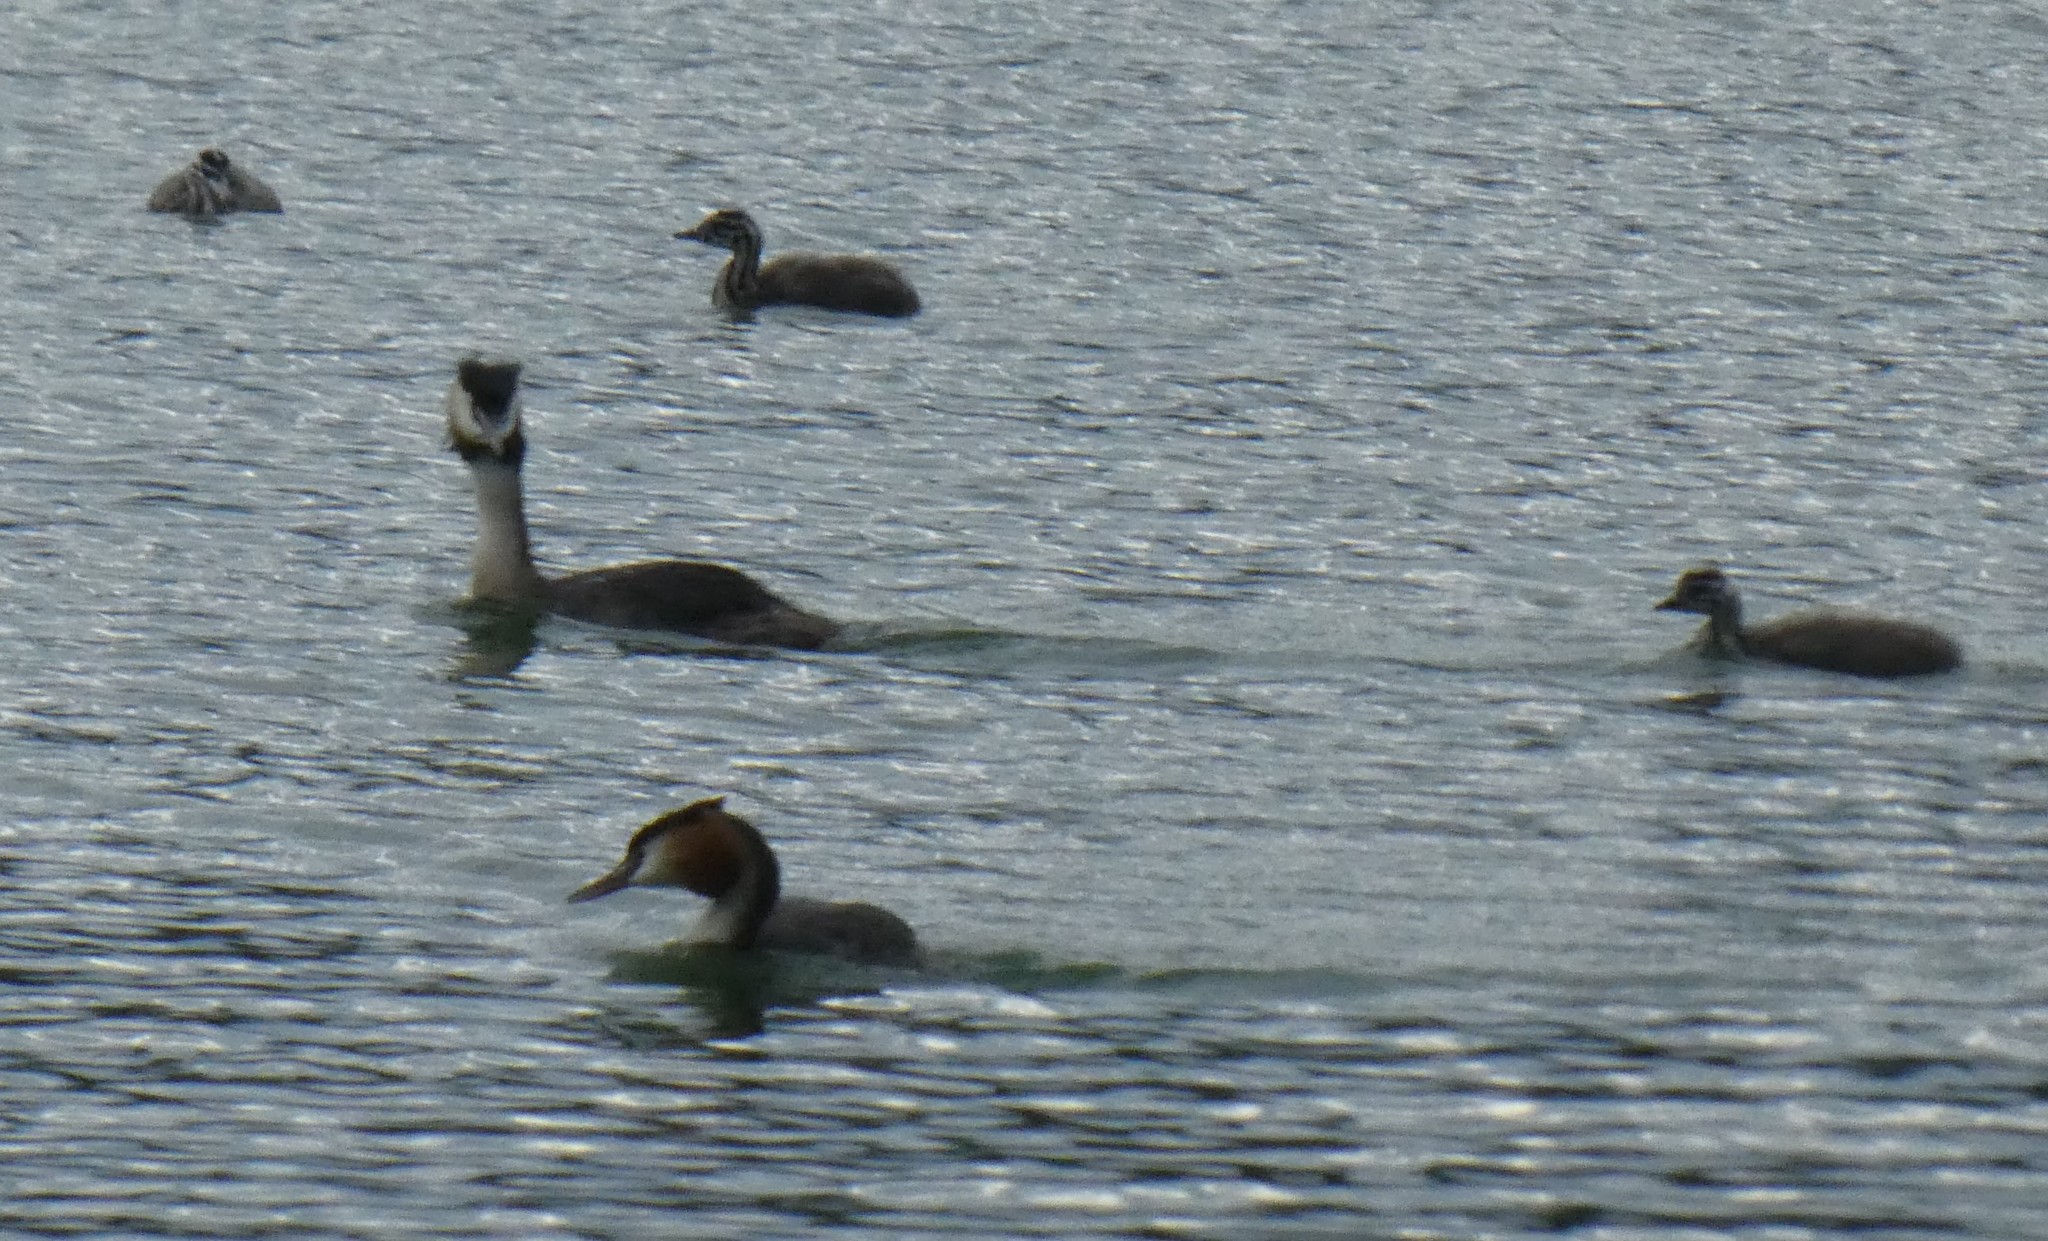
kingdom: Animalia
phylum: Chordata
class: Aves
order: Podicipediformes
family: Podicipedidae
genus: Podiceps
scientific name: Podiceps cristatus
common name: Great crested grebe
